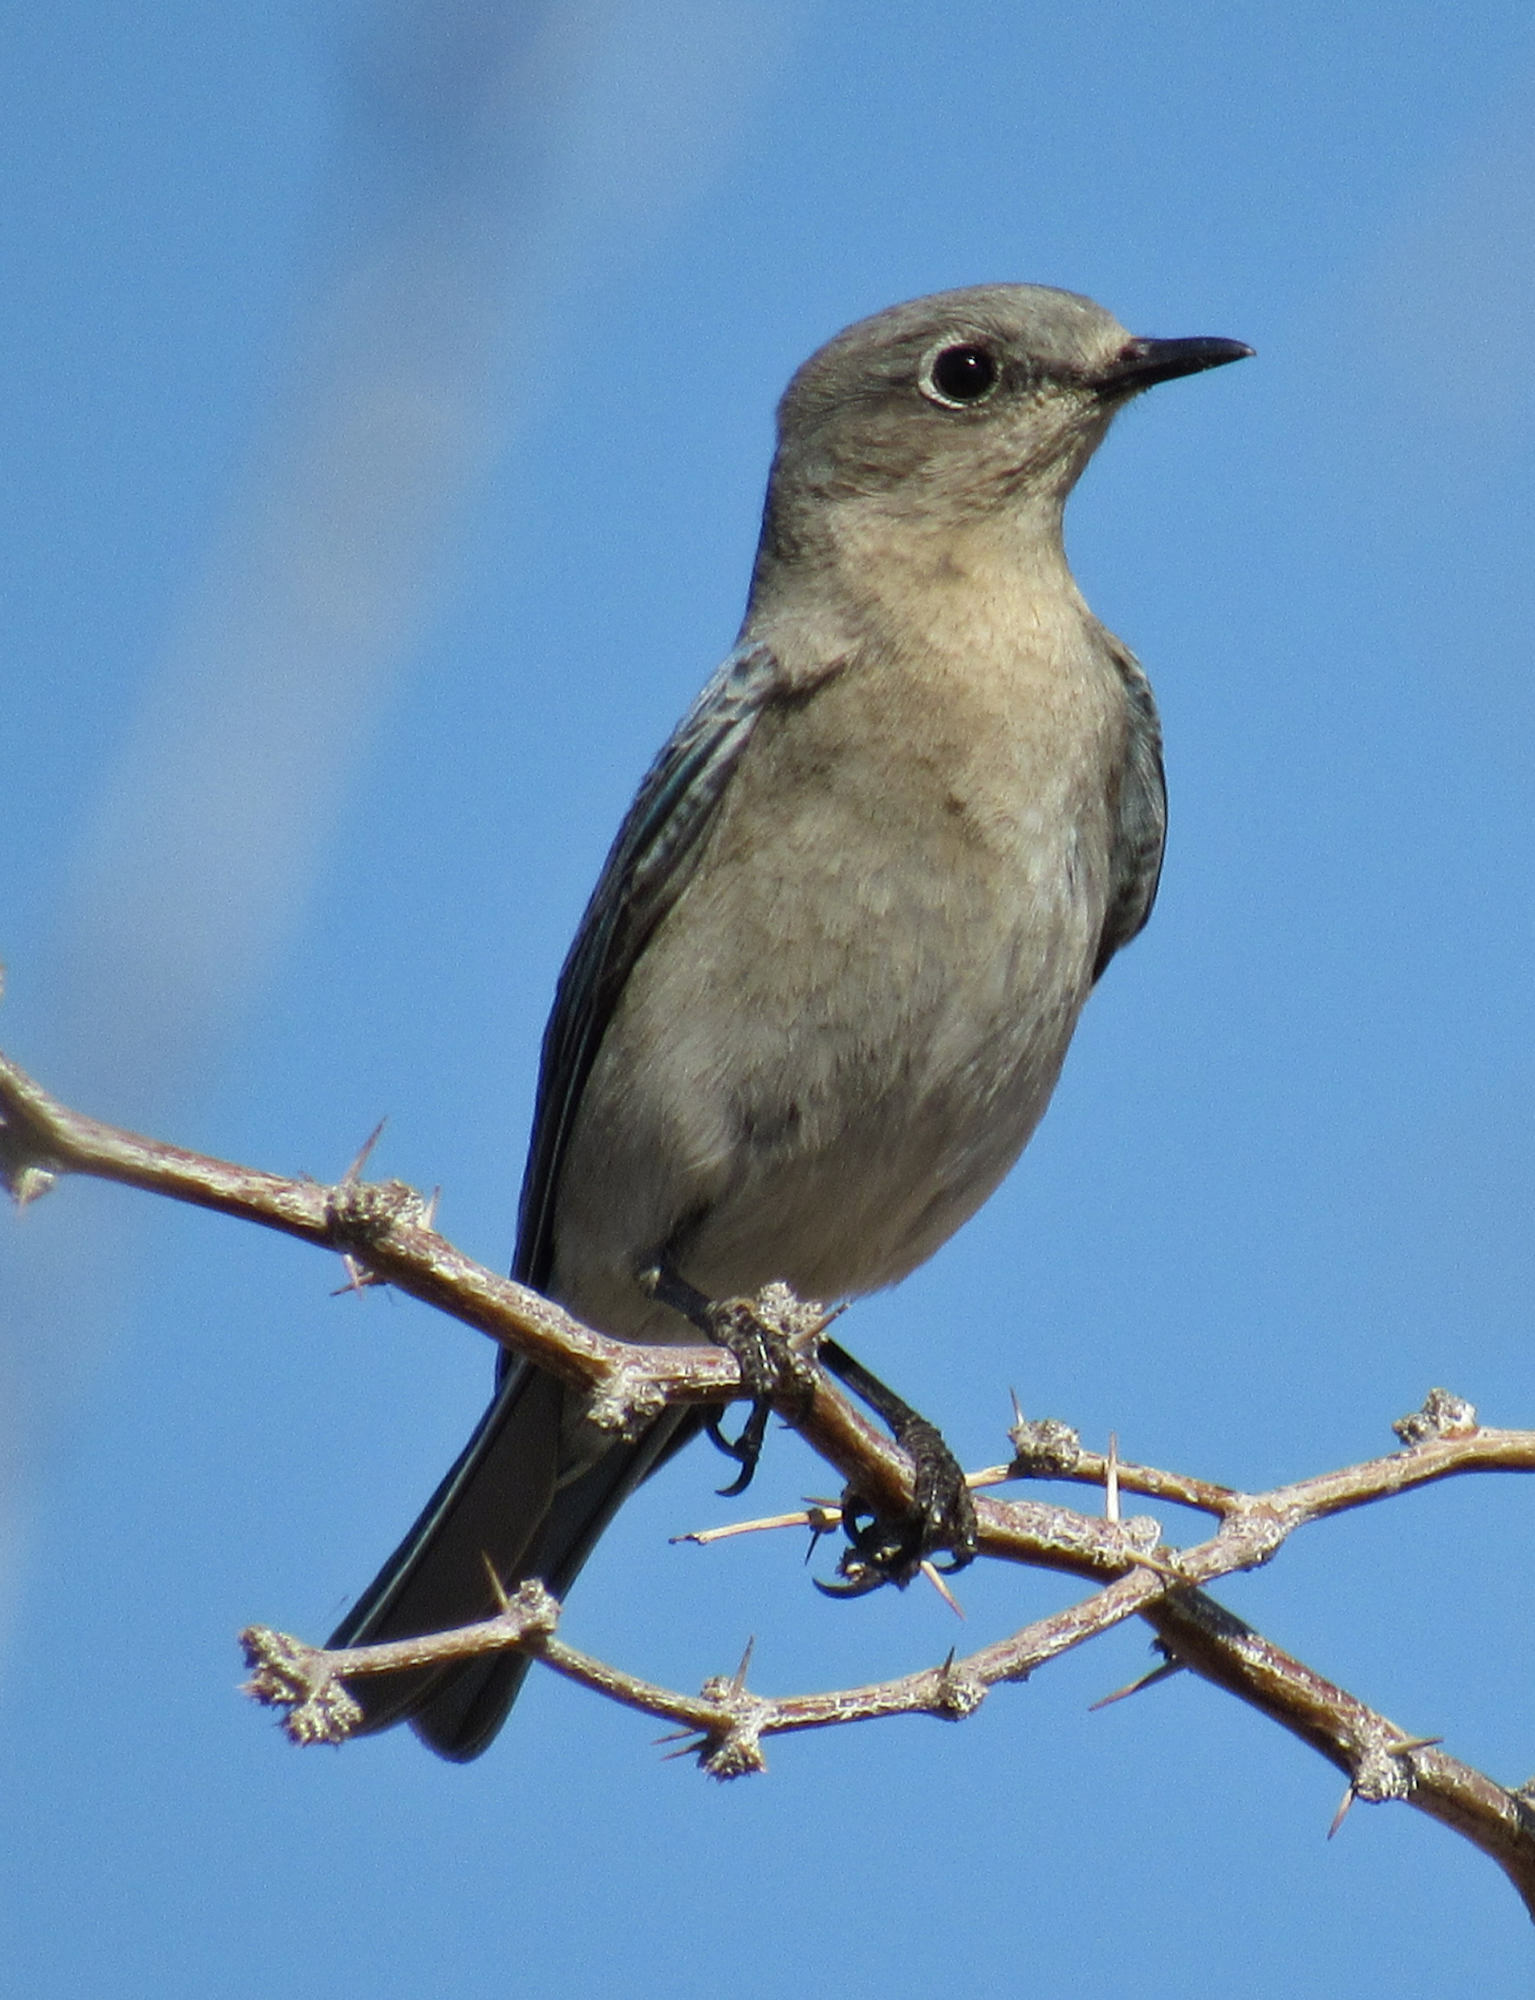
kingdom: Animalia
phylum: Chordata
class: Aves
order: Passeriformes
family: Turdidae
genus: Sialia
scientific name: Sialia currucoides
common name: Mountain bluebird
